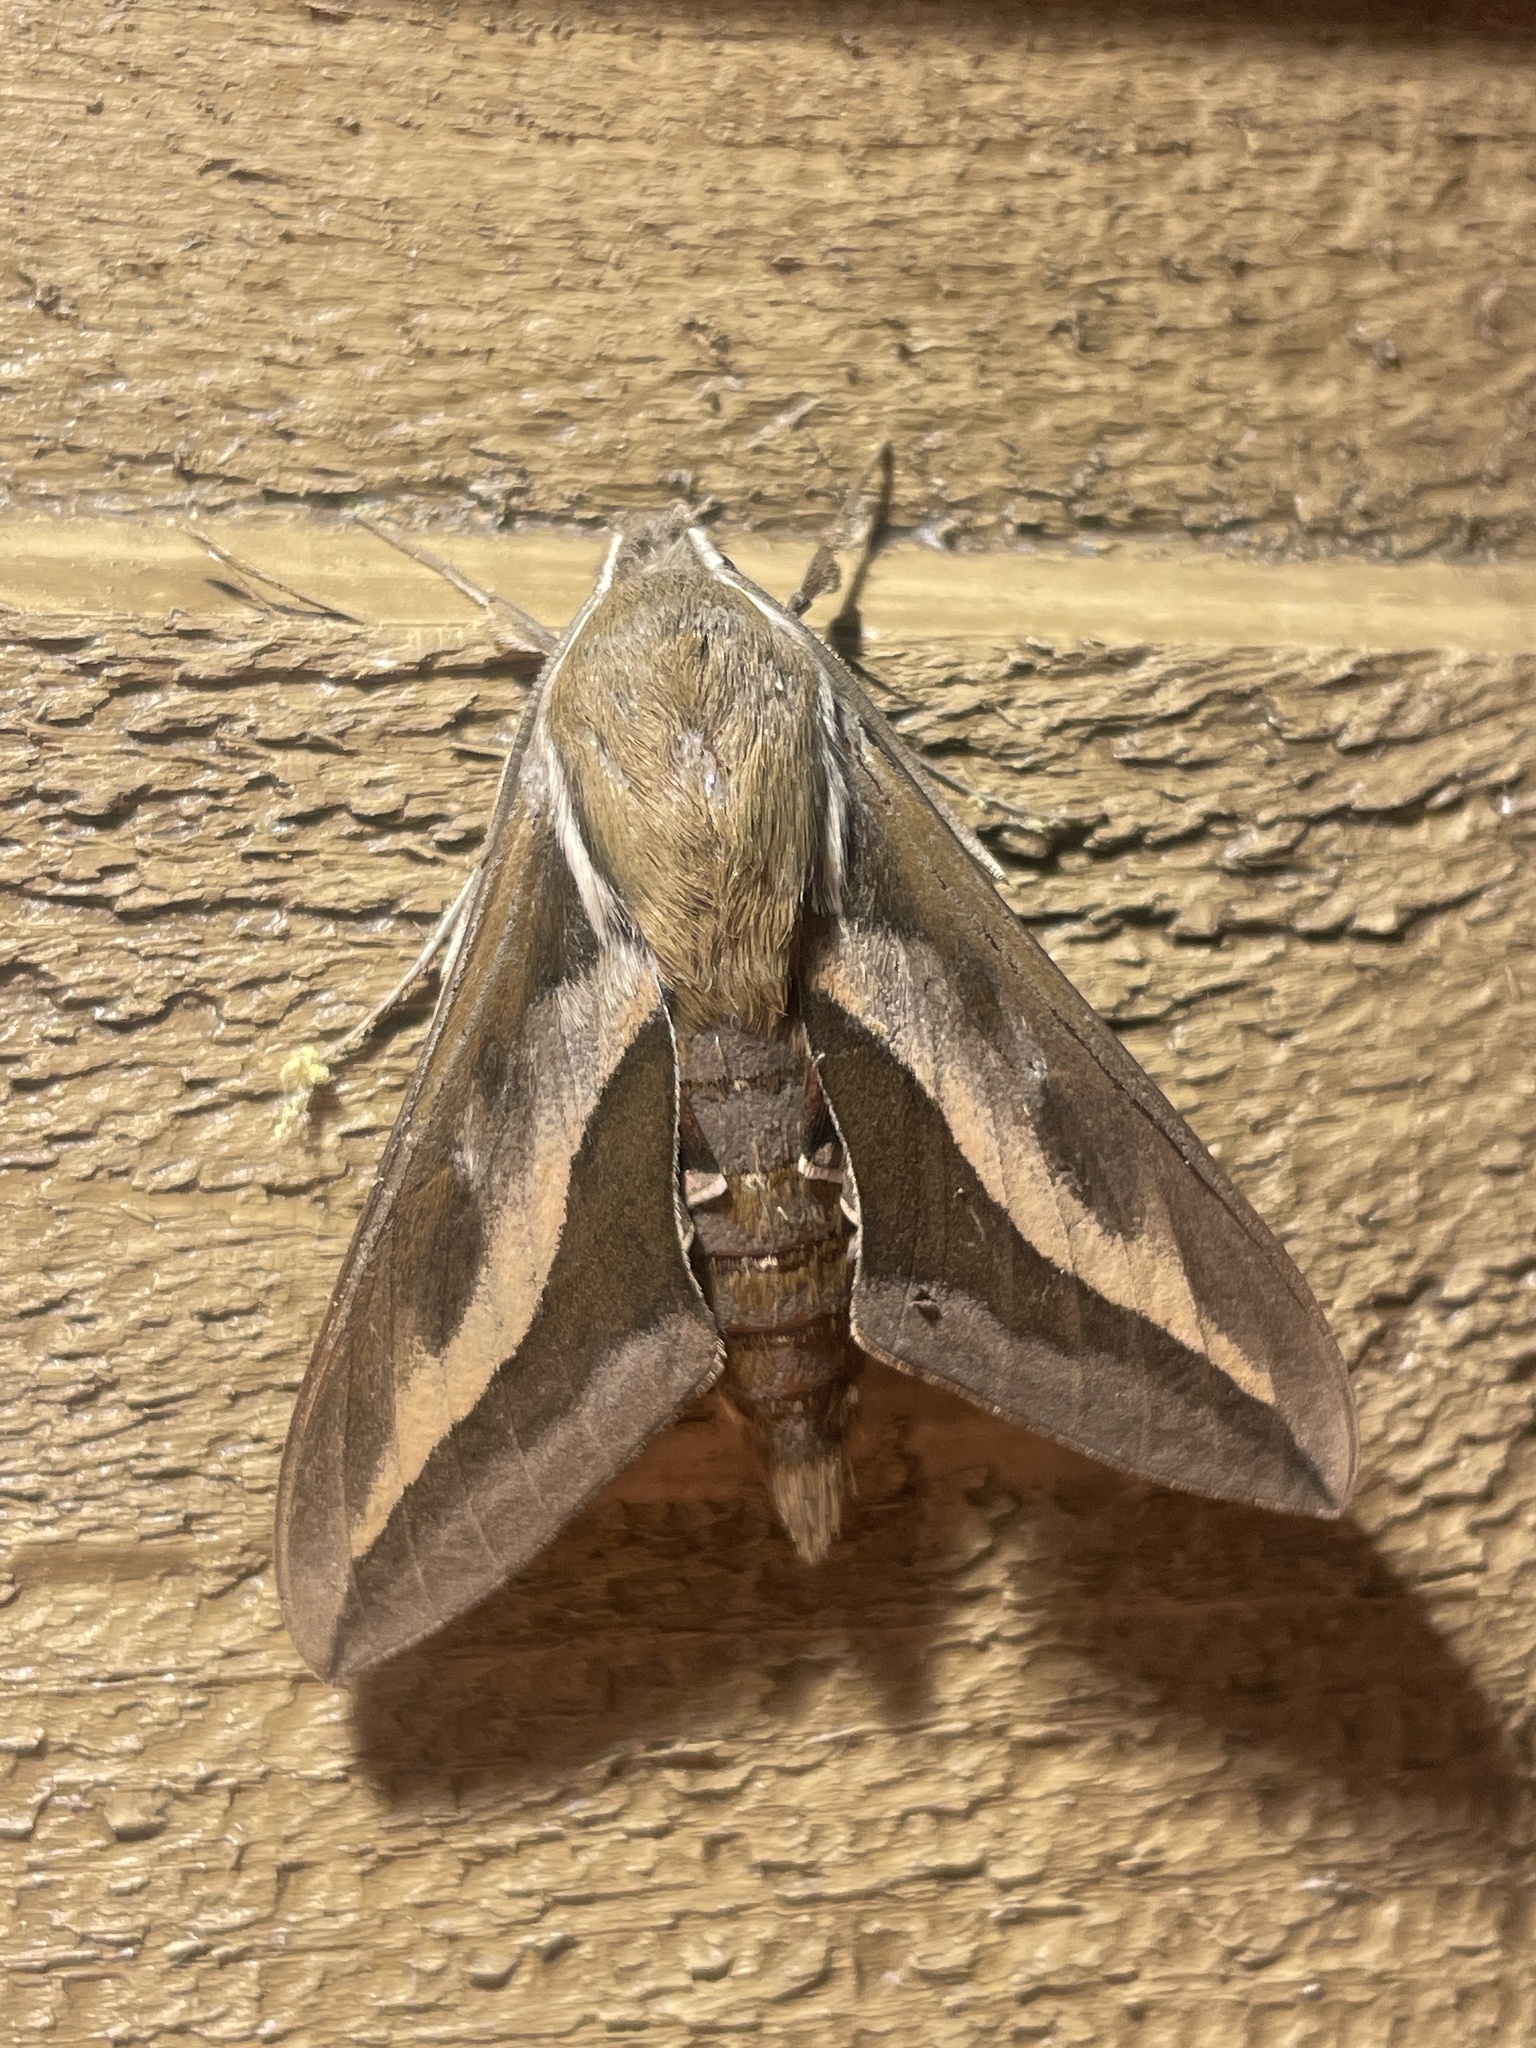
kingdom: Animalia
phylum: Arthropoda
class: Insecta
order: Lepidoptera
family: Sphingidae
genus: Hyles
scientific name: Hyles gallii
